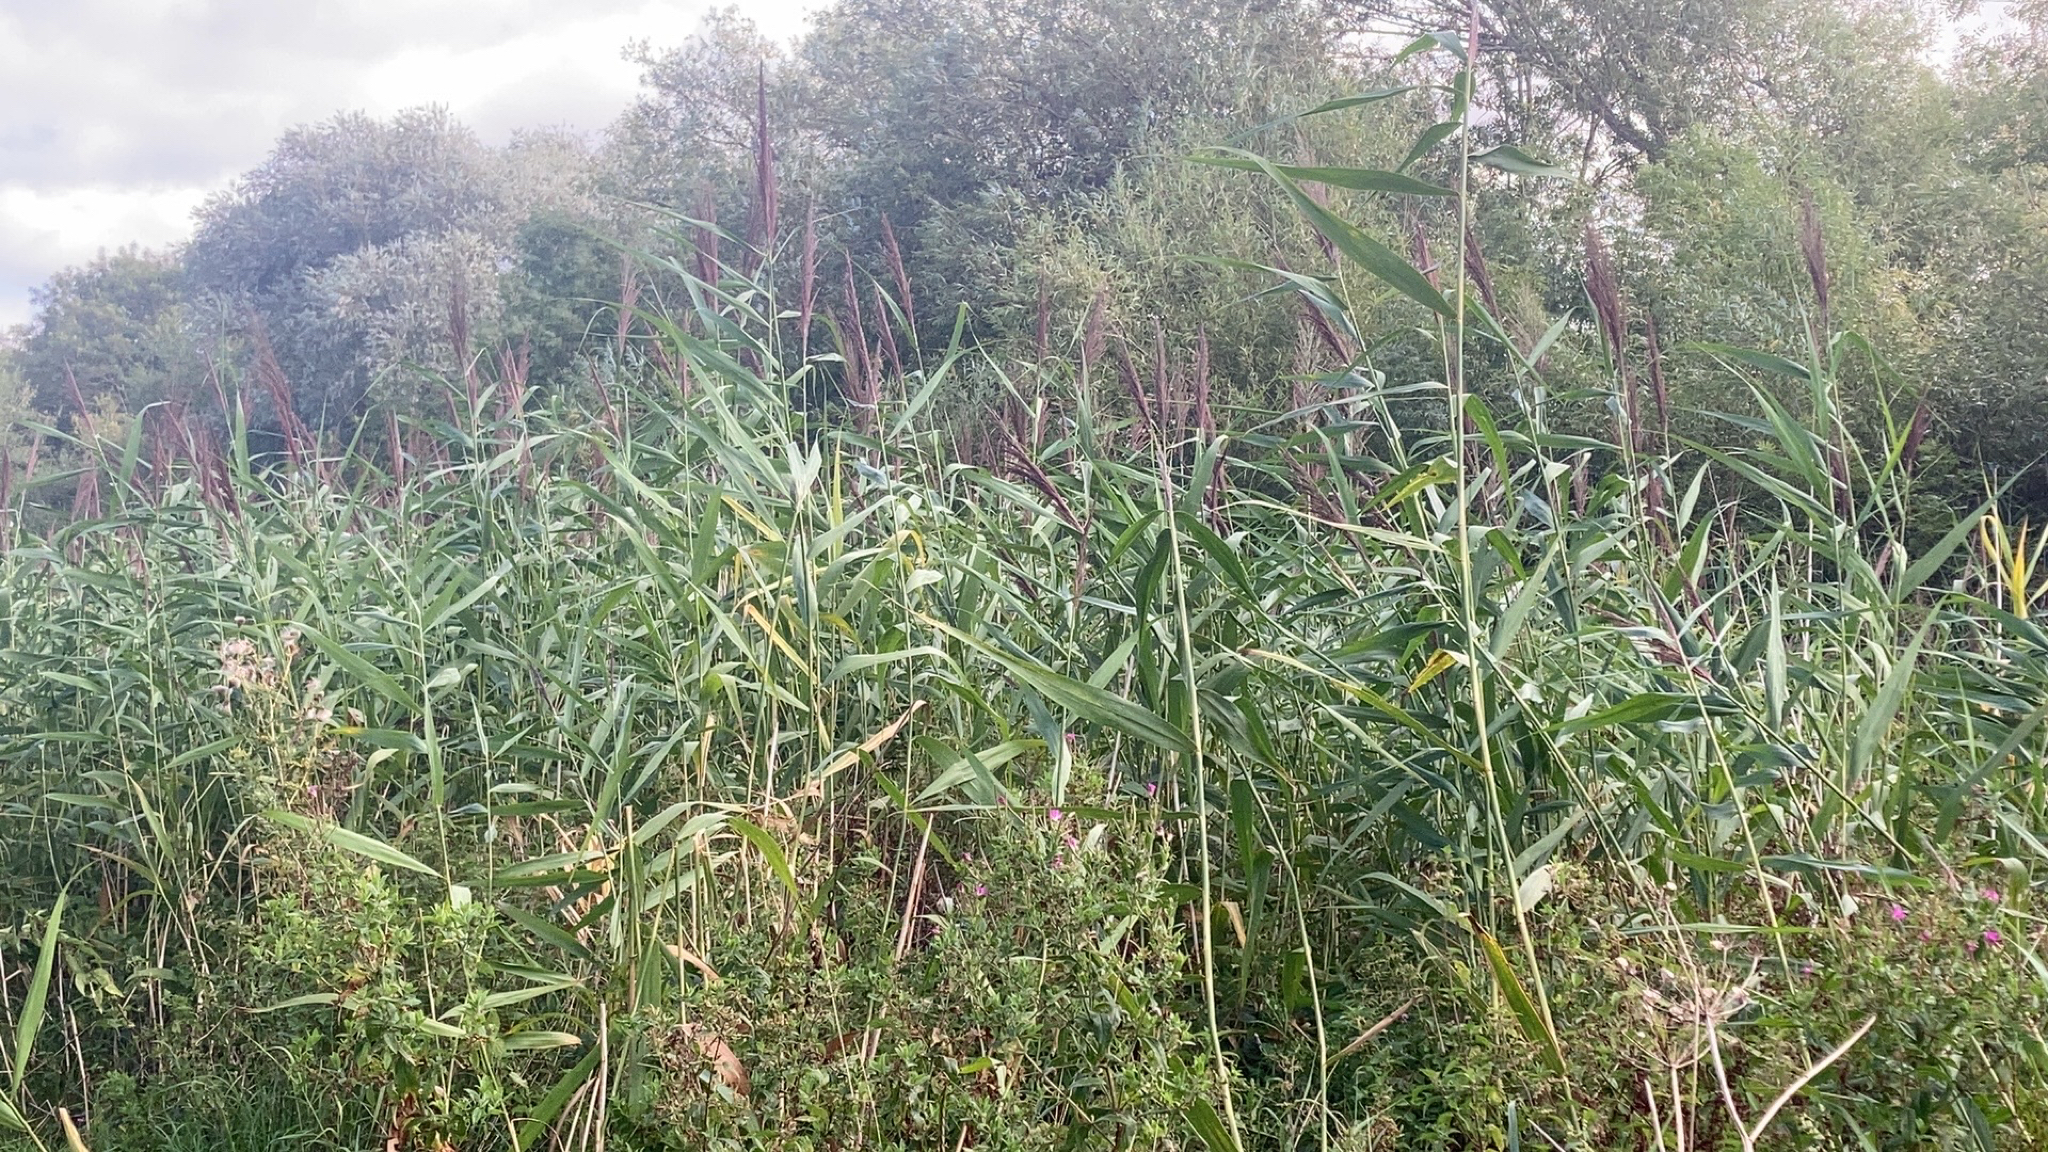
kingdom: Plantae
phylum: Tracheophyta
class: Liliopsida
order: Poales
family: Poaceae
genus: Phragmites
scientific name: Phragmites australis
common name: Common reed
